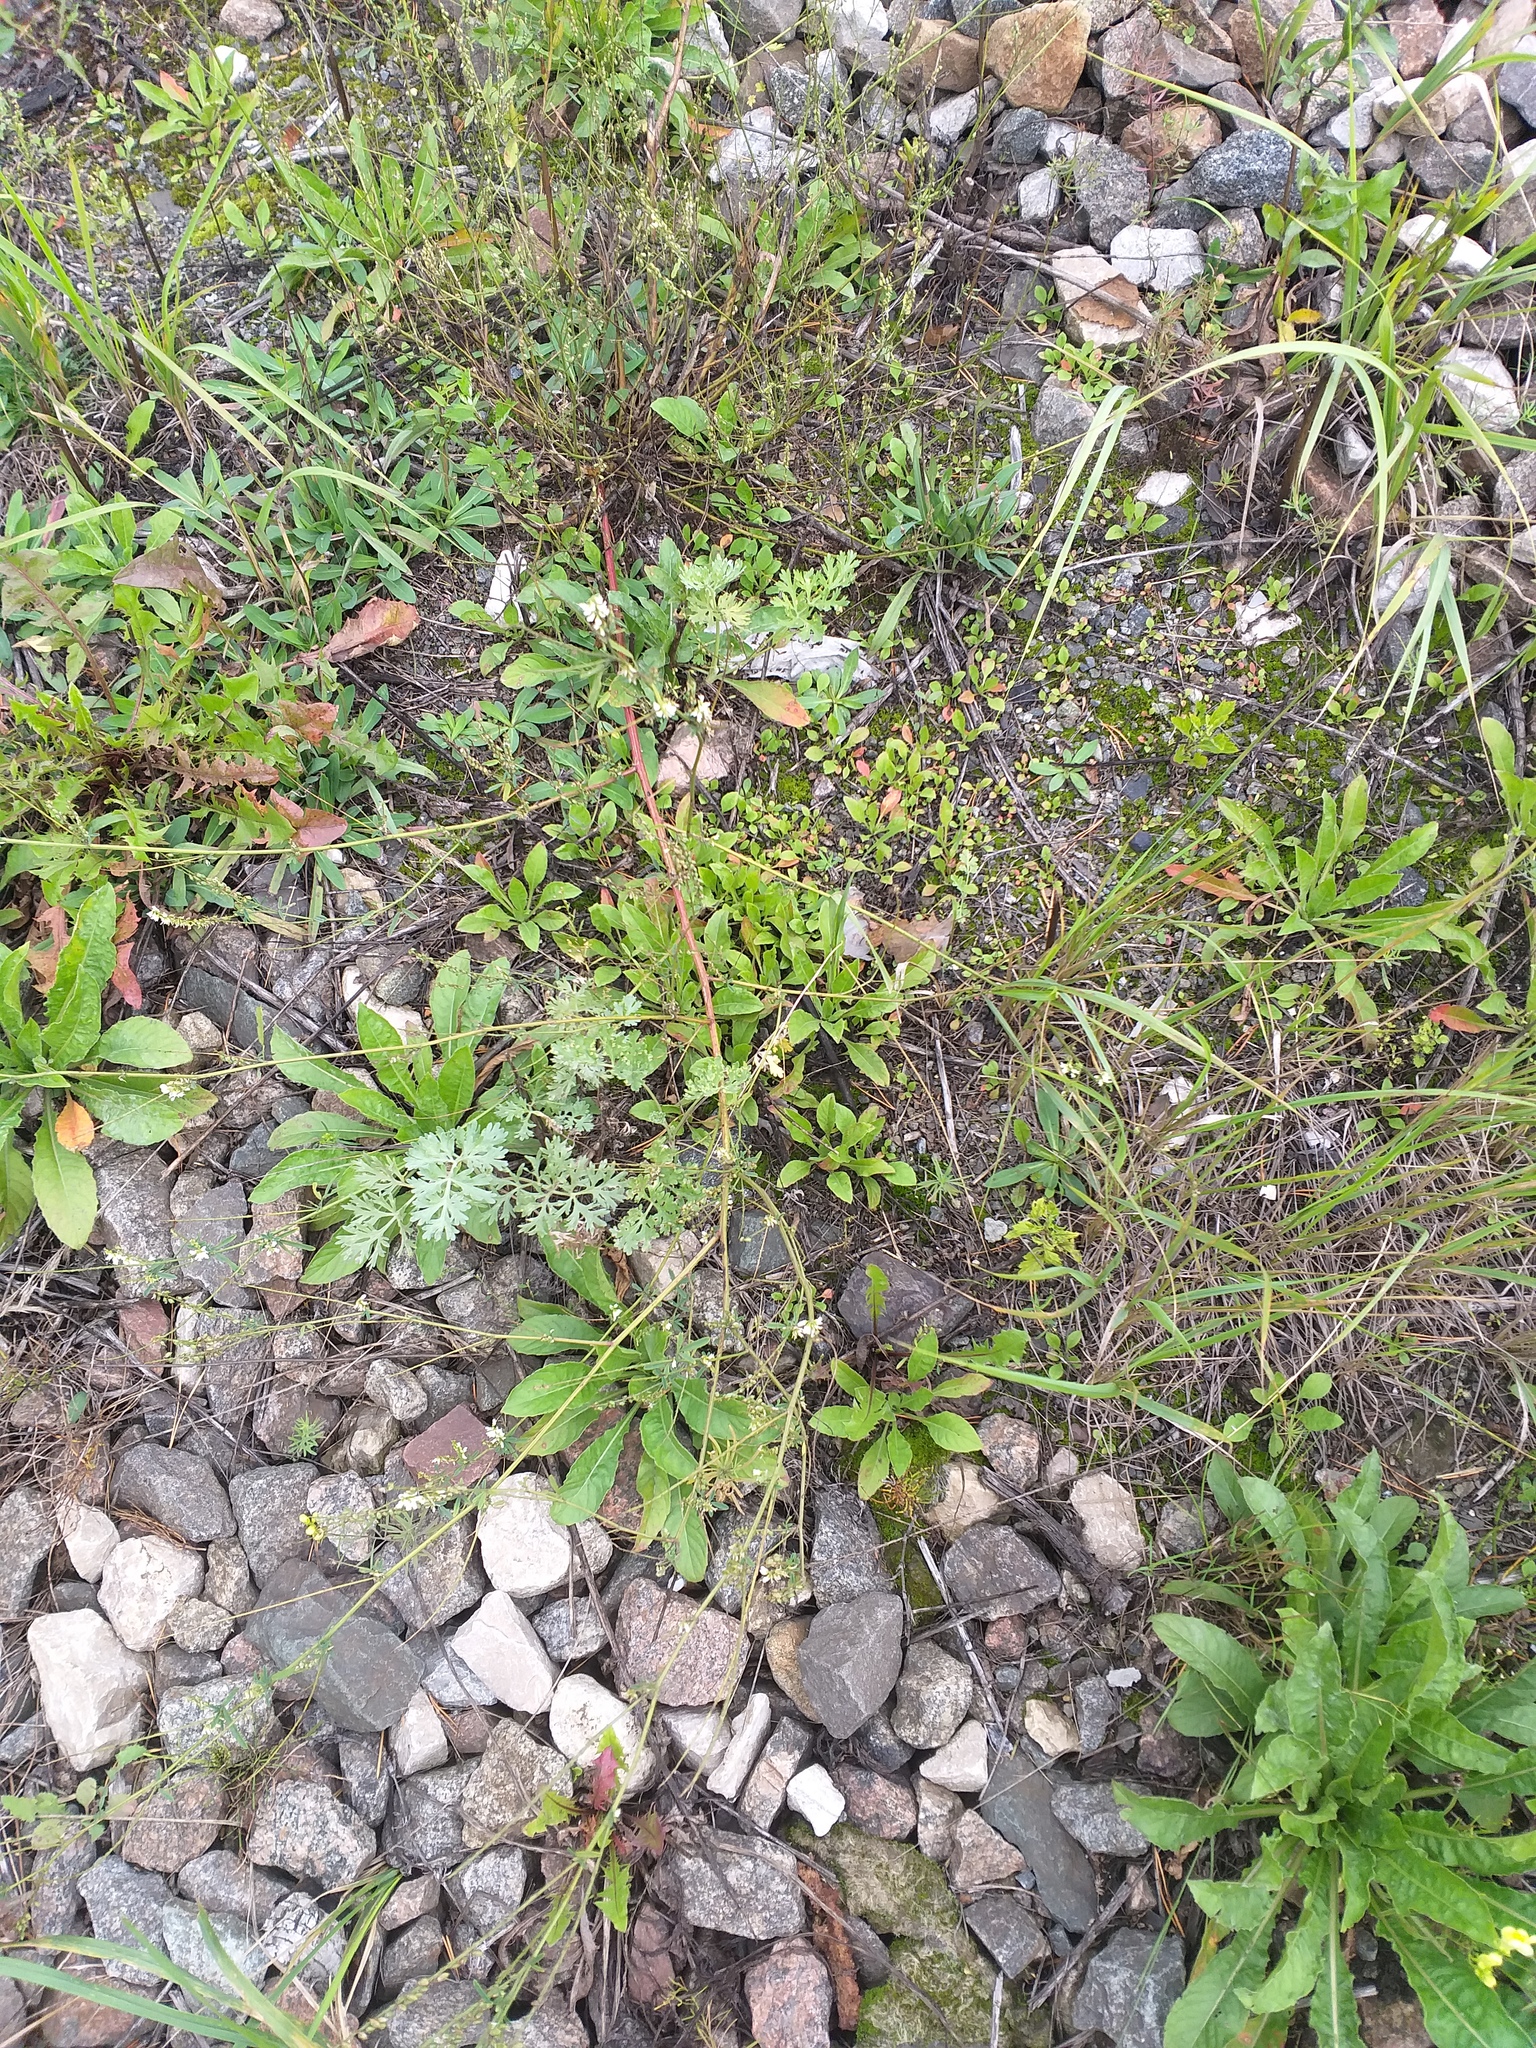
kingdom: Plantae
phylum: Tracheophyta
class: Magnoliopsida
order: Fabales
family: Fabaceae
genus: Melilotus
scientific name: Melilotus albus
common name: White melilot
